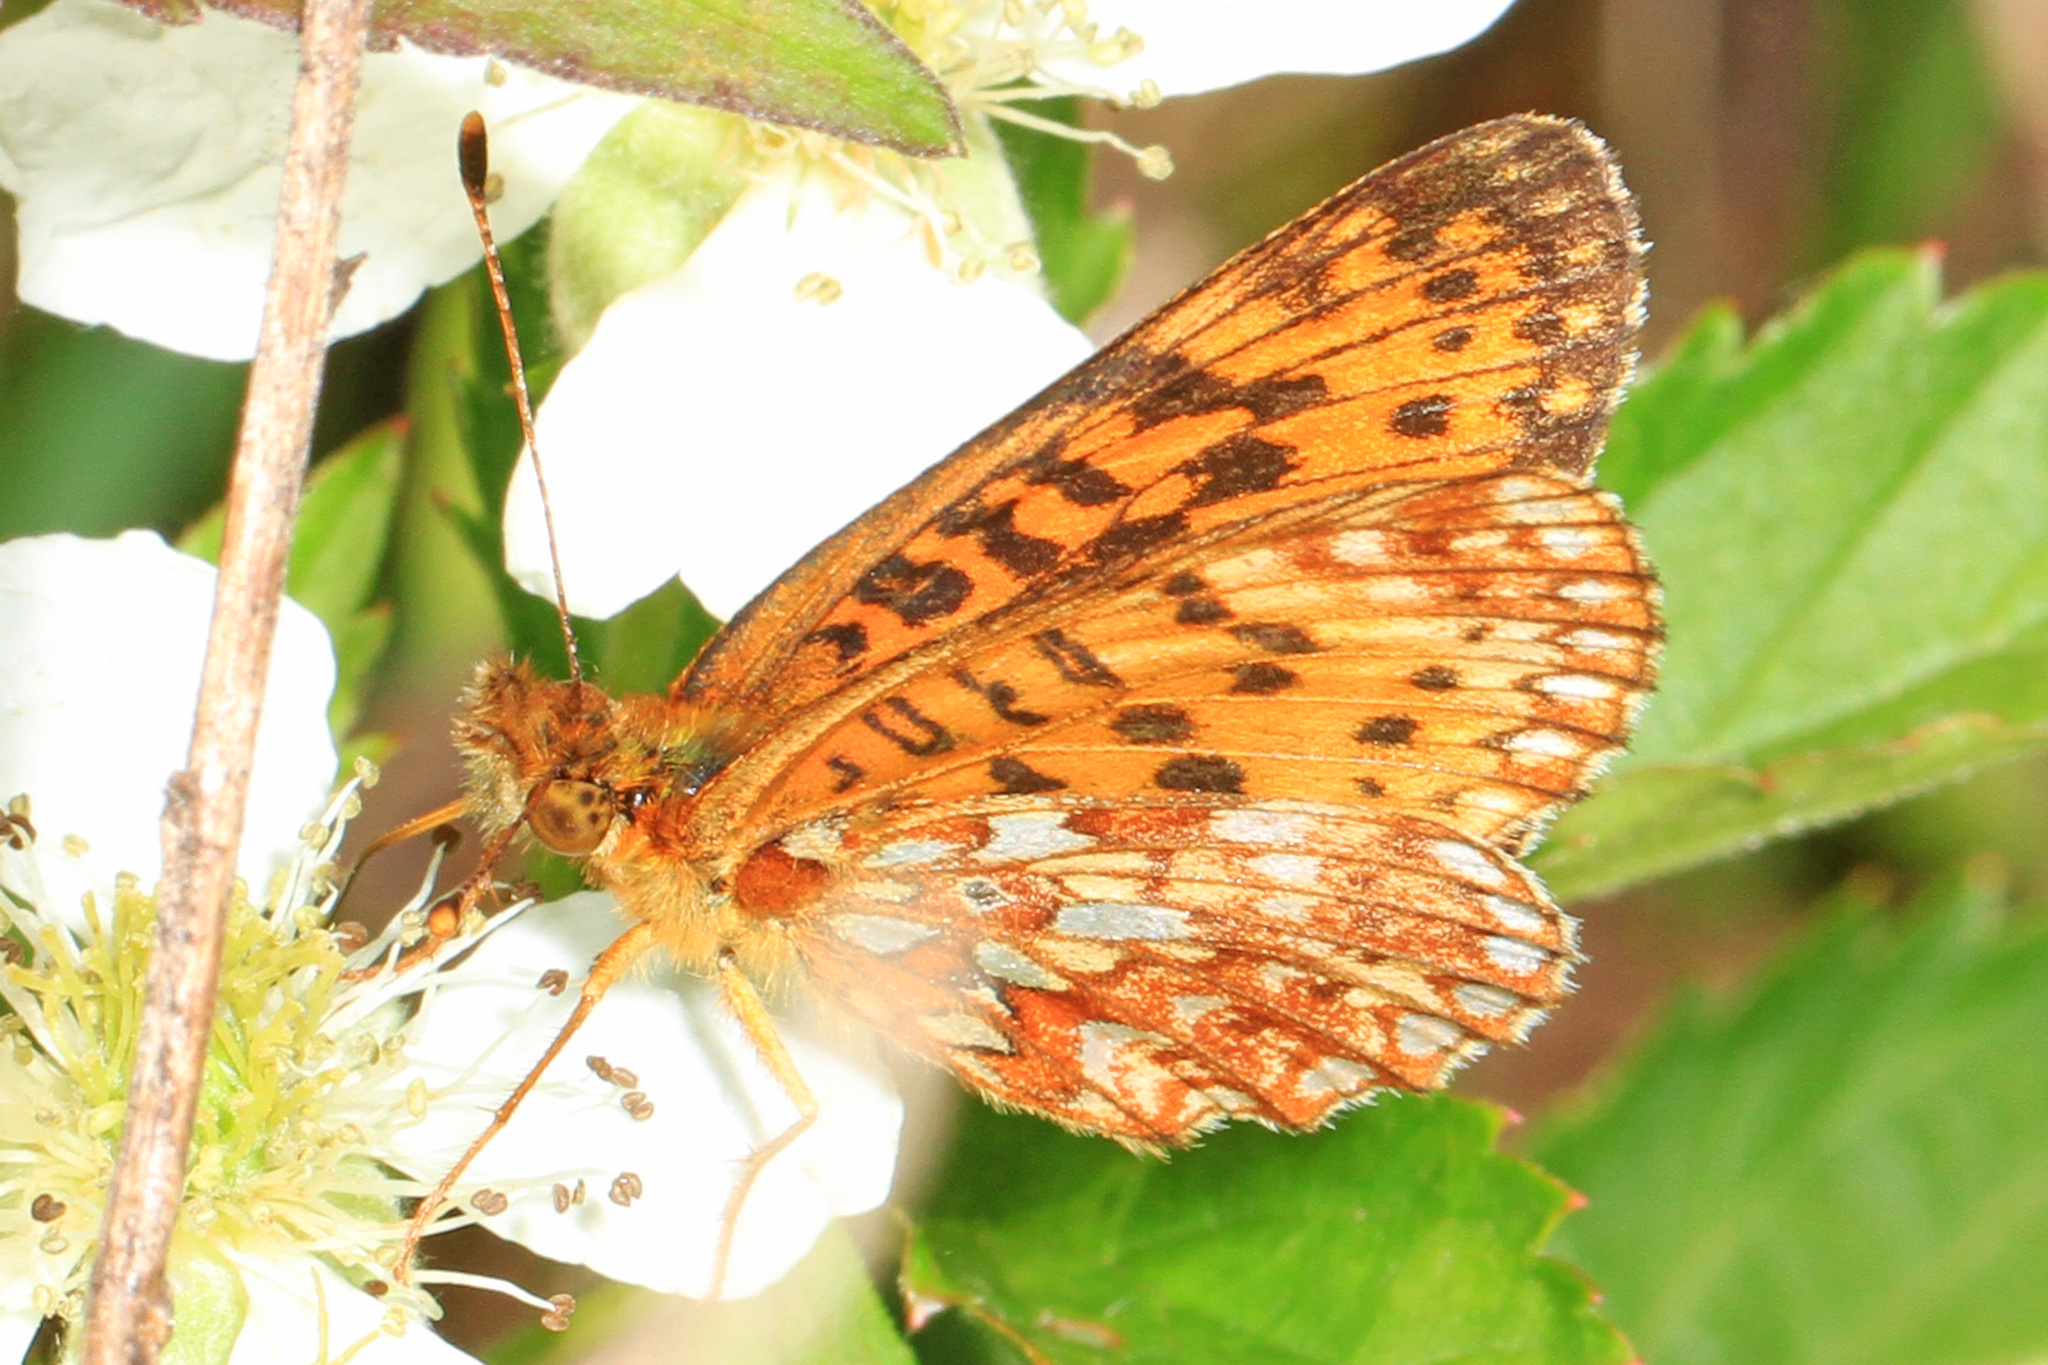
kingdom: Animalia
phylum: Arthropoda
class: Insecta
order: Lepidoptera
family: Nymphalidae
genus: Boloria
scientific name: Boloria
